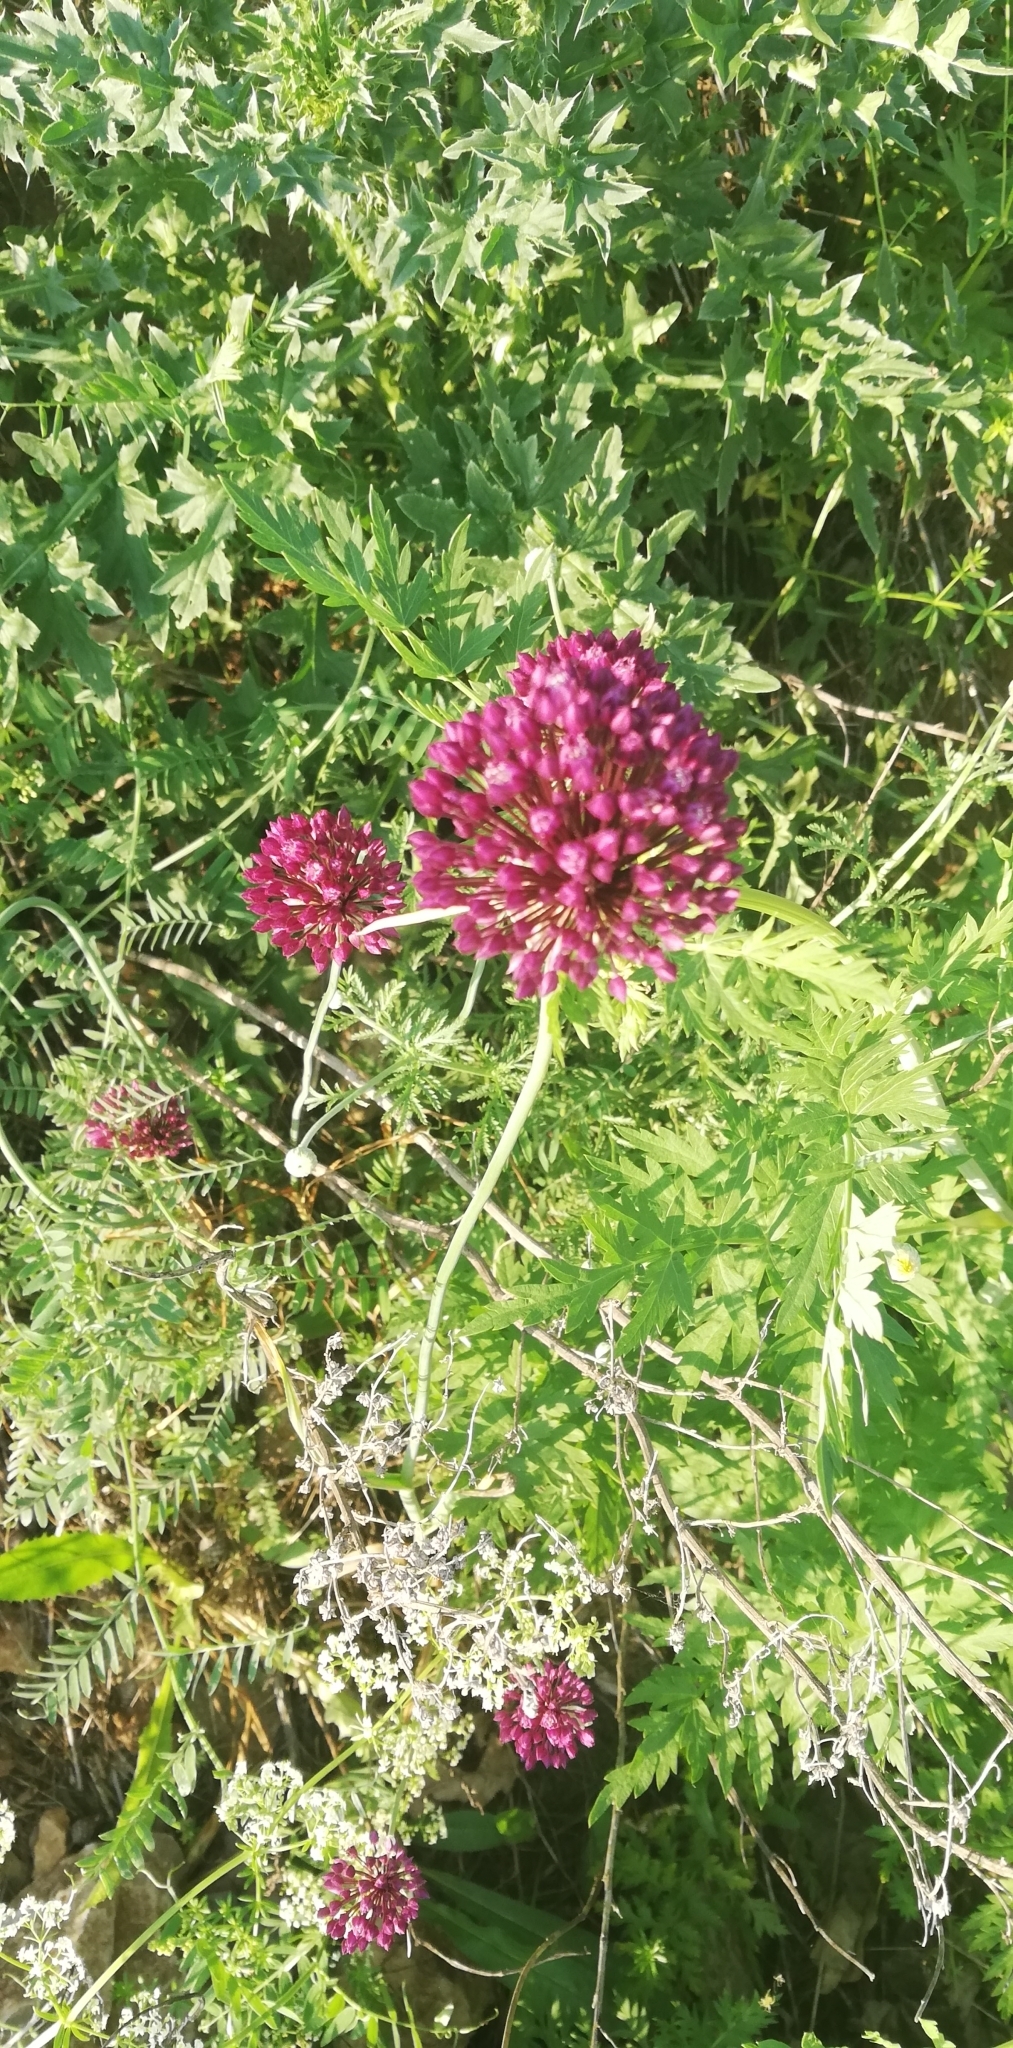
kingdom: Plantae
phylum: Tracheophyta
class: Liliopsida
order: Asparagales
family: Amaryllidaceae
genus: Allium
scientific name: Allium rotundum
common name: Sand leek
